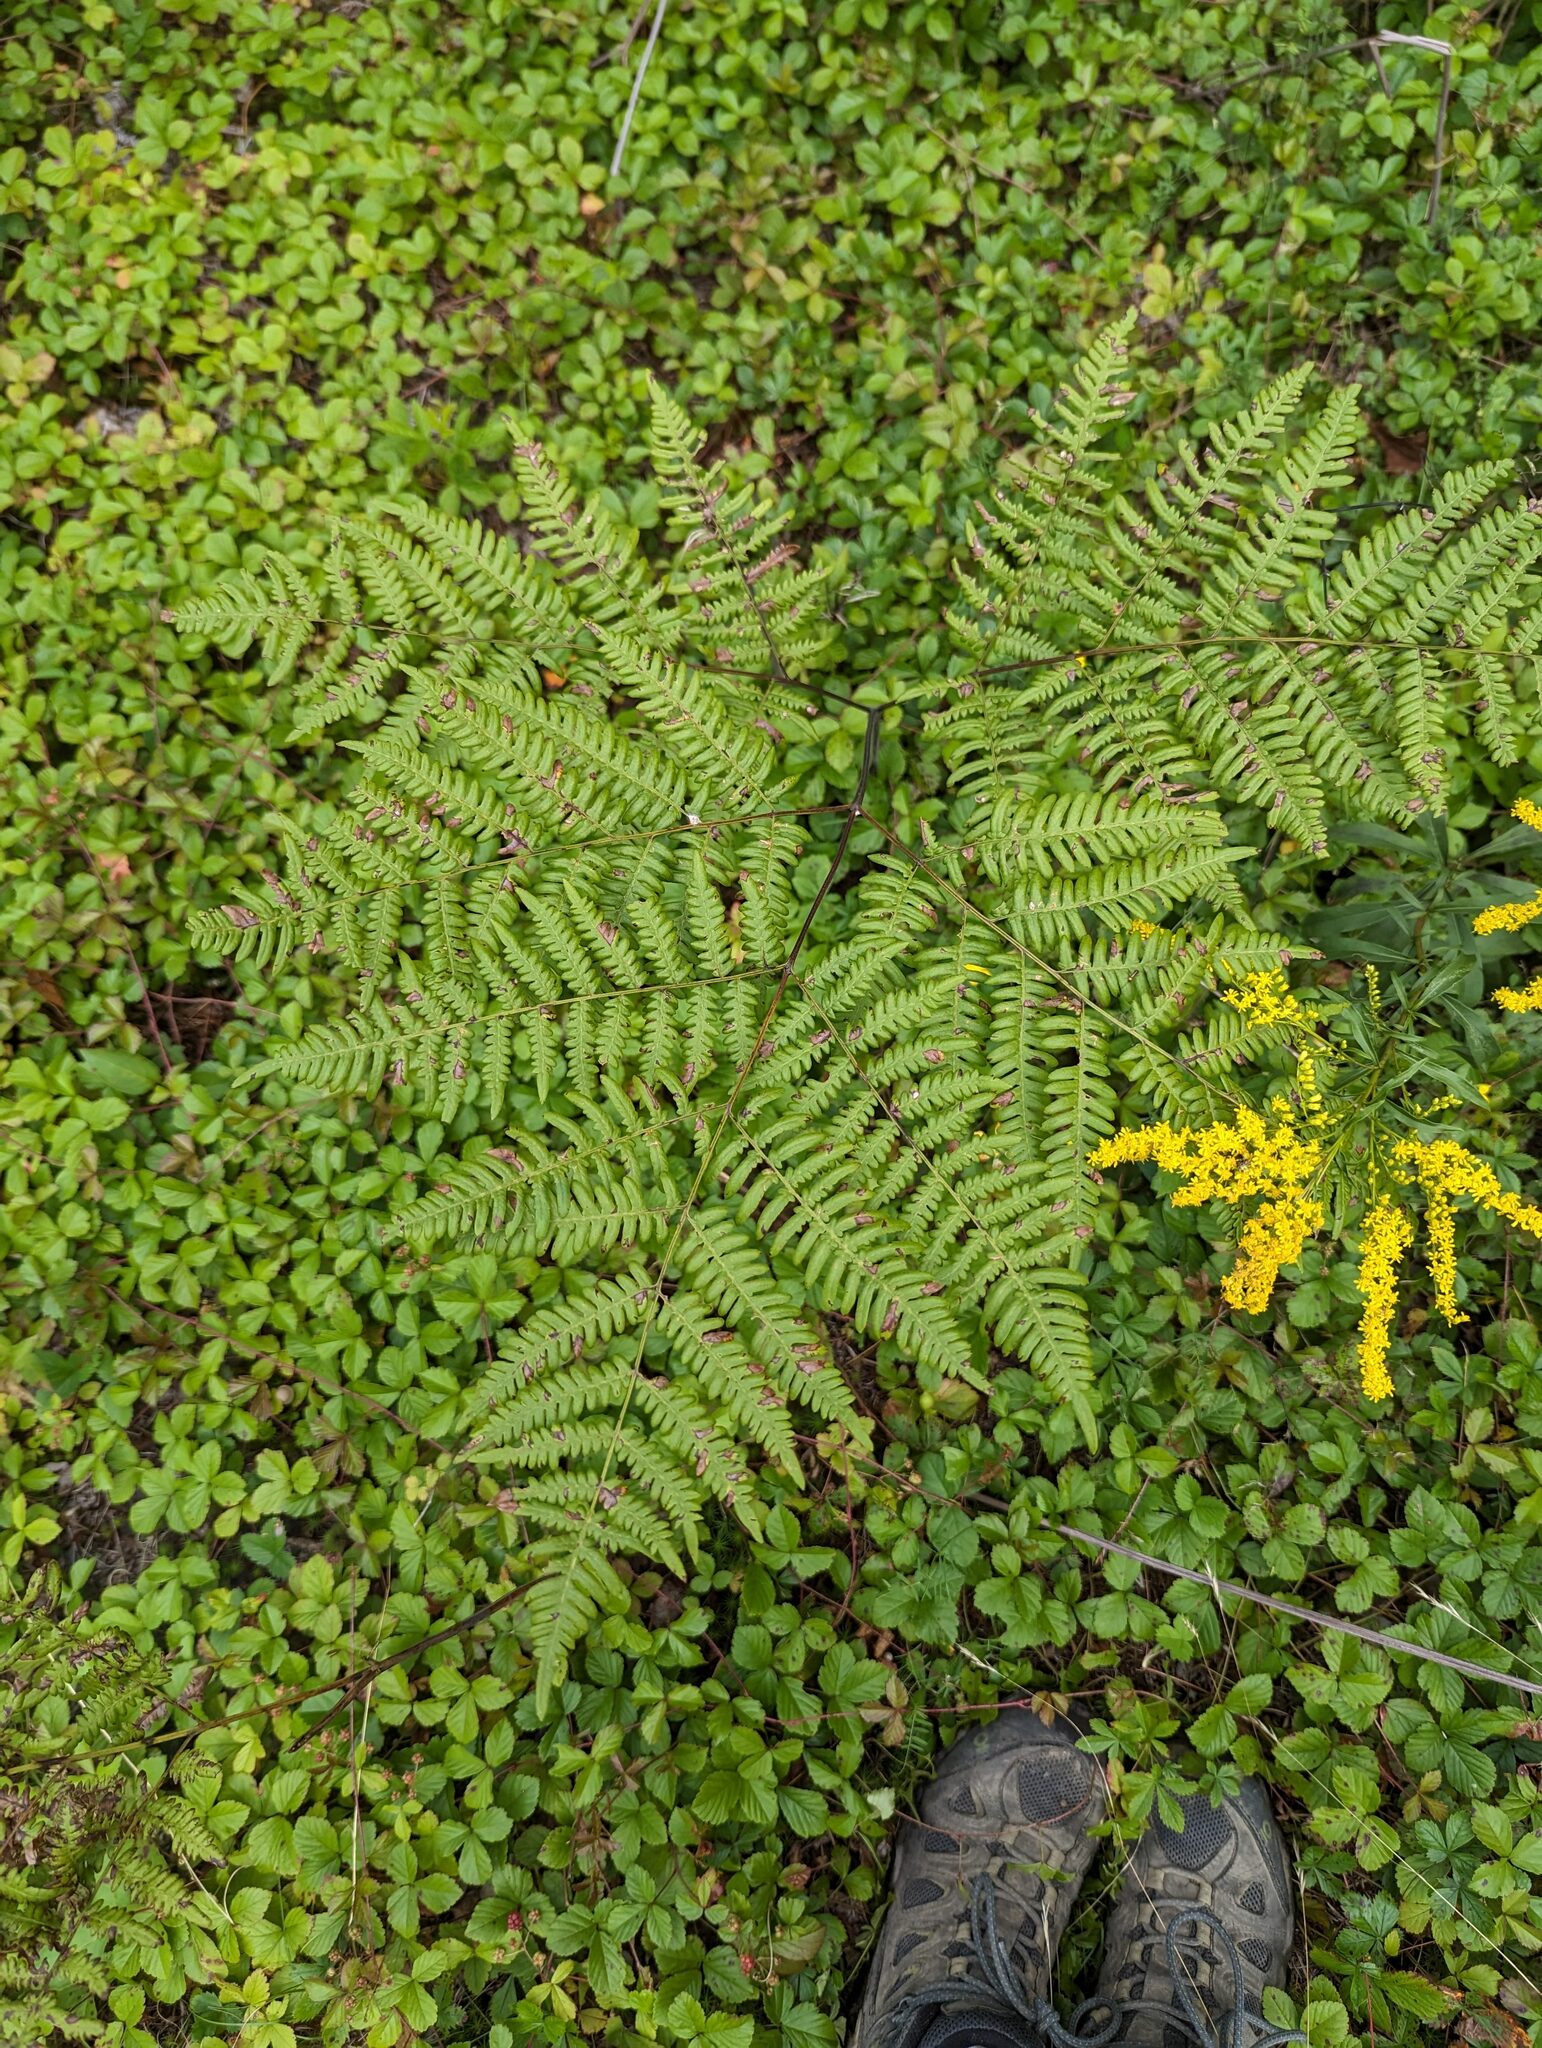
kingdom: Plantae
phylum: Tracheophyta
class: Polypodiopsida
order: Polypodiales
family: Dennstaedtiaceae
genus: Pteridium
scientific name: Pteridium aquilinum
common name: Bracken
